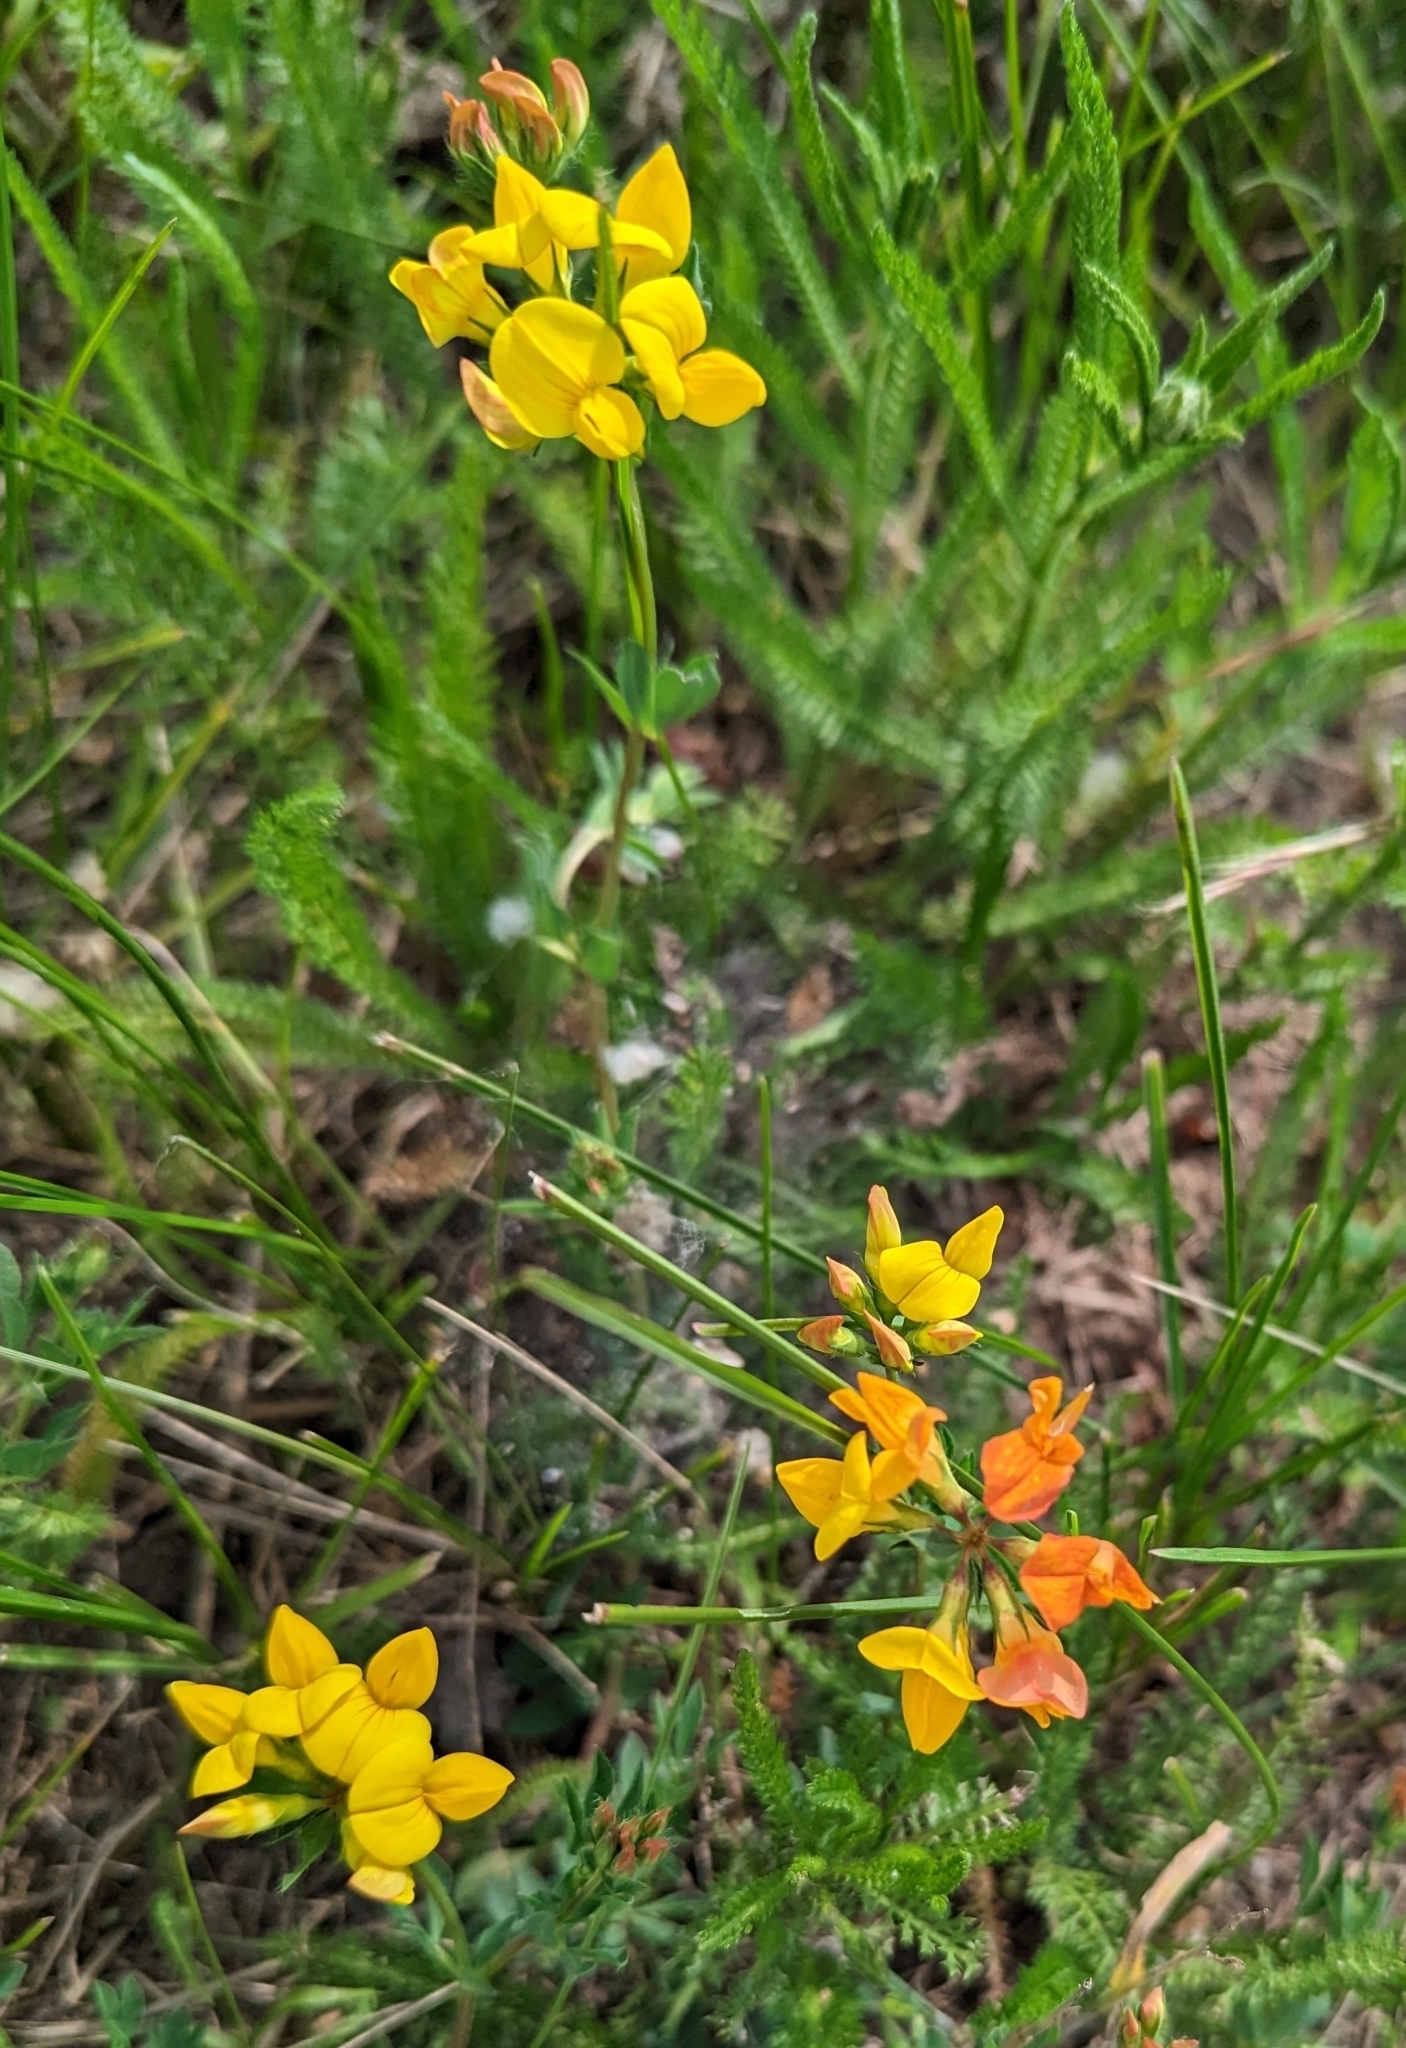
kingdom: Plantae
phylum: Tracheophyta
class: Magnoliopsida
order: Fabales
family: Fabaceae
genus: Lotus
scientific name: Lotus corniculatus
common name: Common bird's-foot-trefoil
